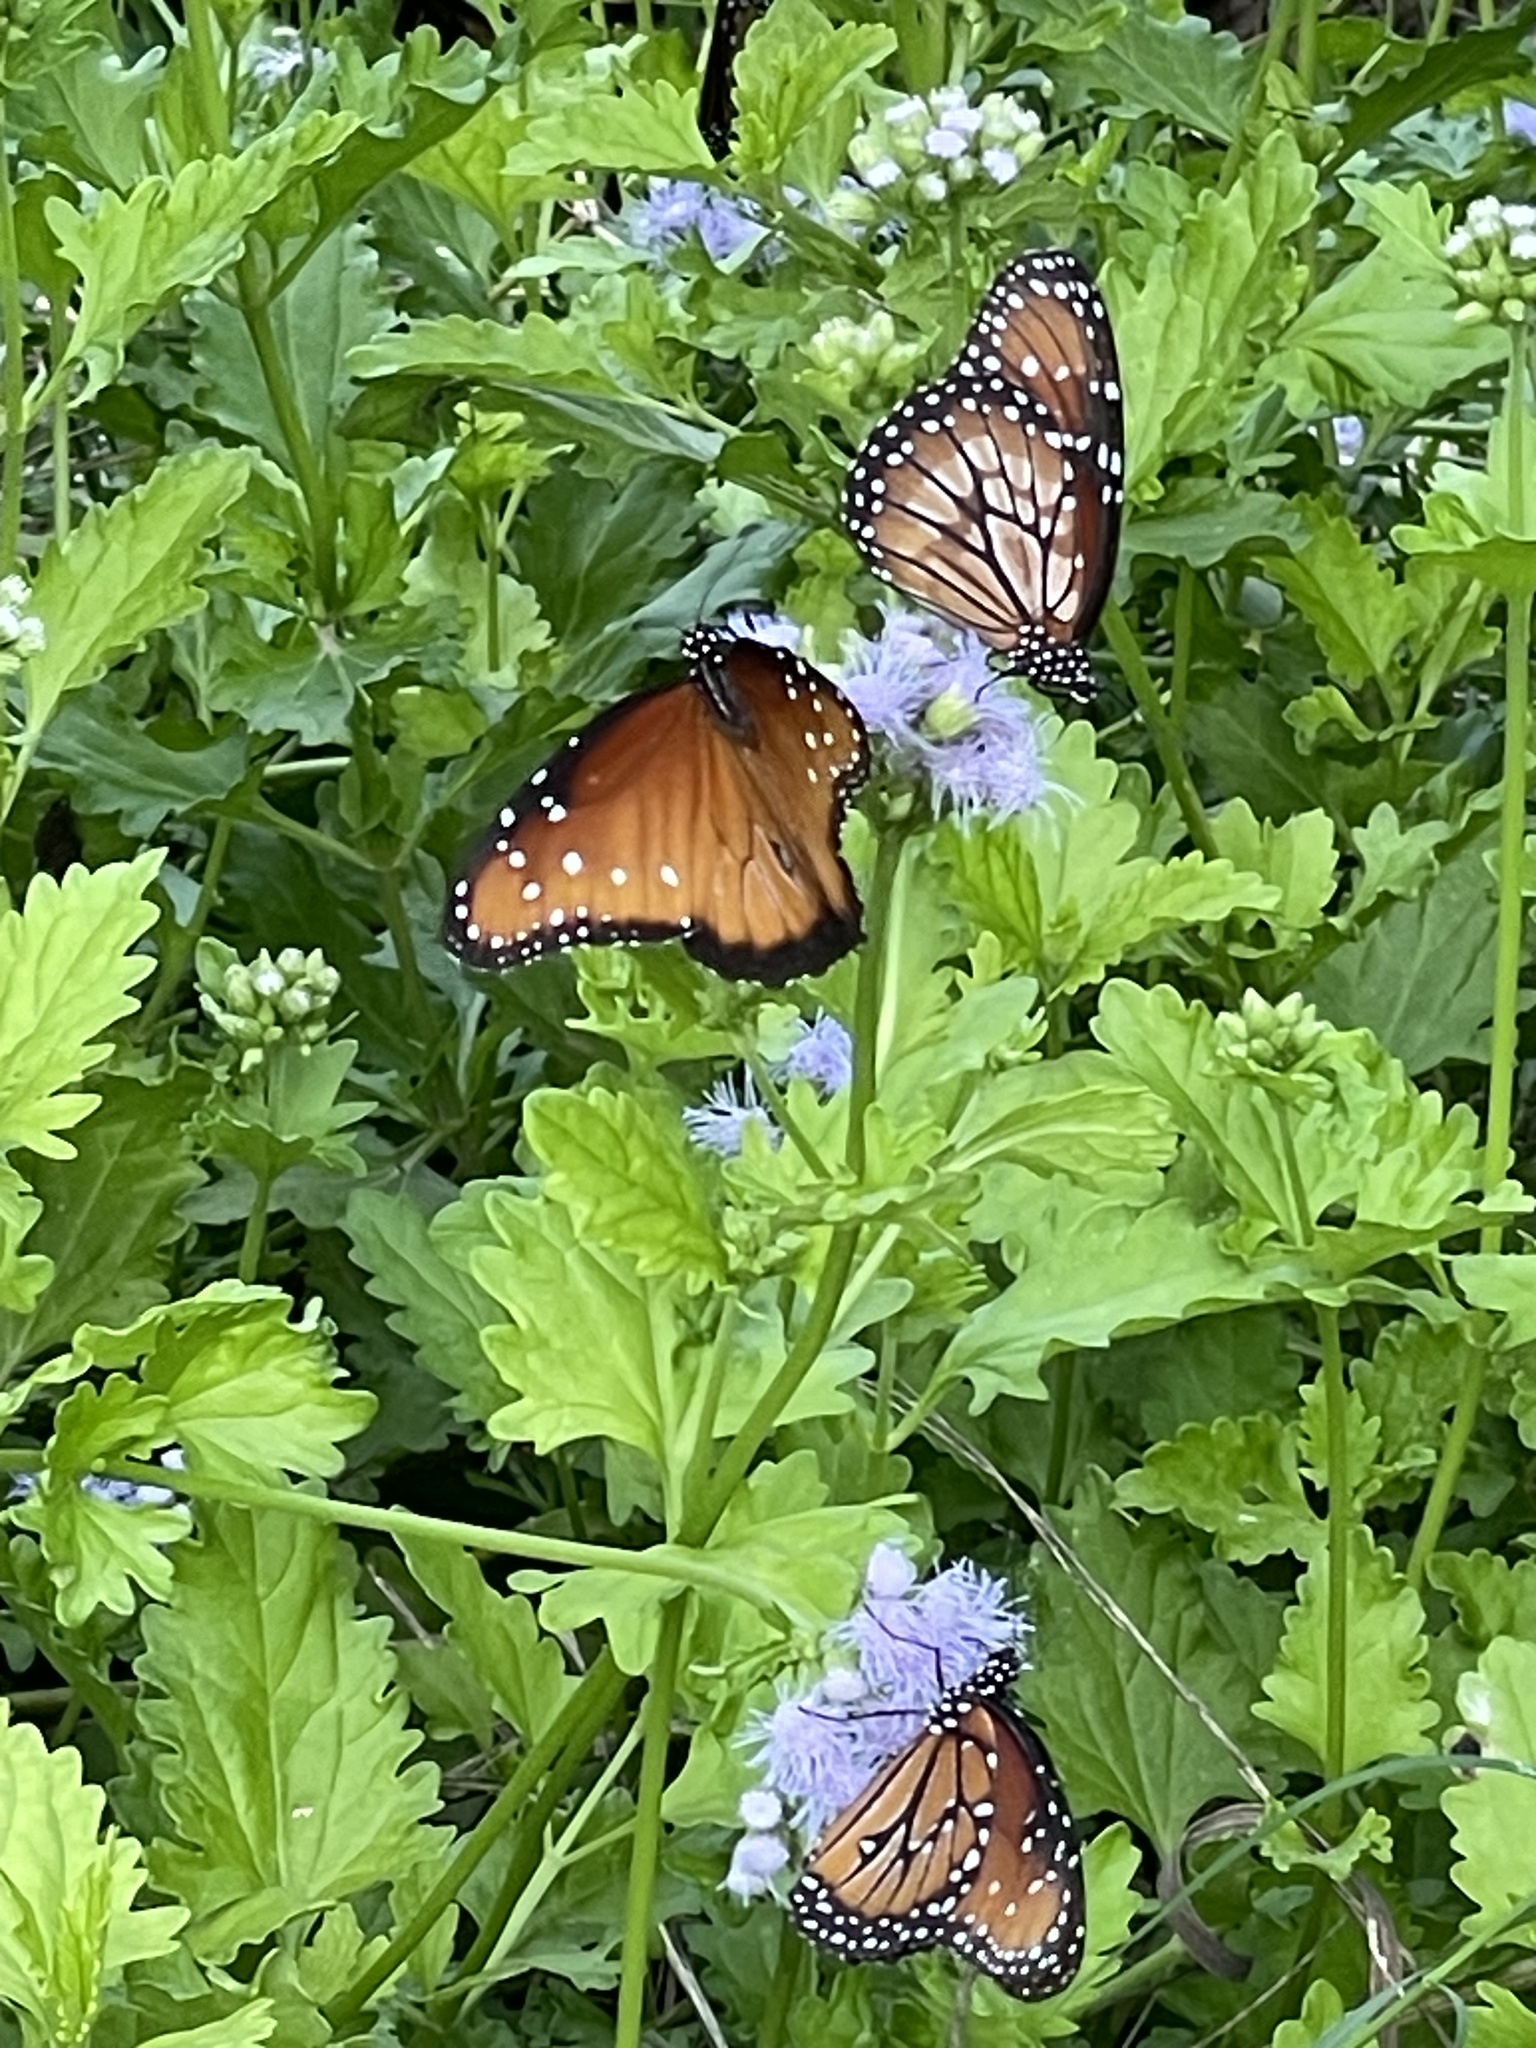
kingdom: Animalia
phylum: Arthropoda
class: Insecta
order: Lepidoptera
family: Nymphalidae
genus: Danaus
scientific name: Danaus gilippus
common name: Queen
